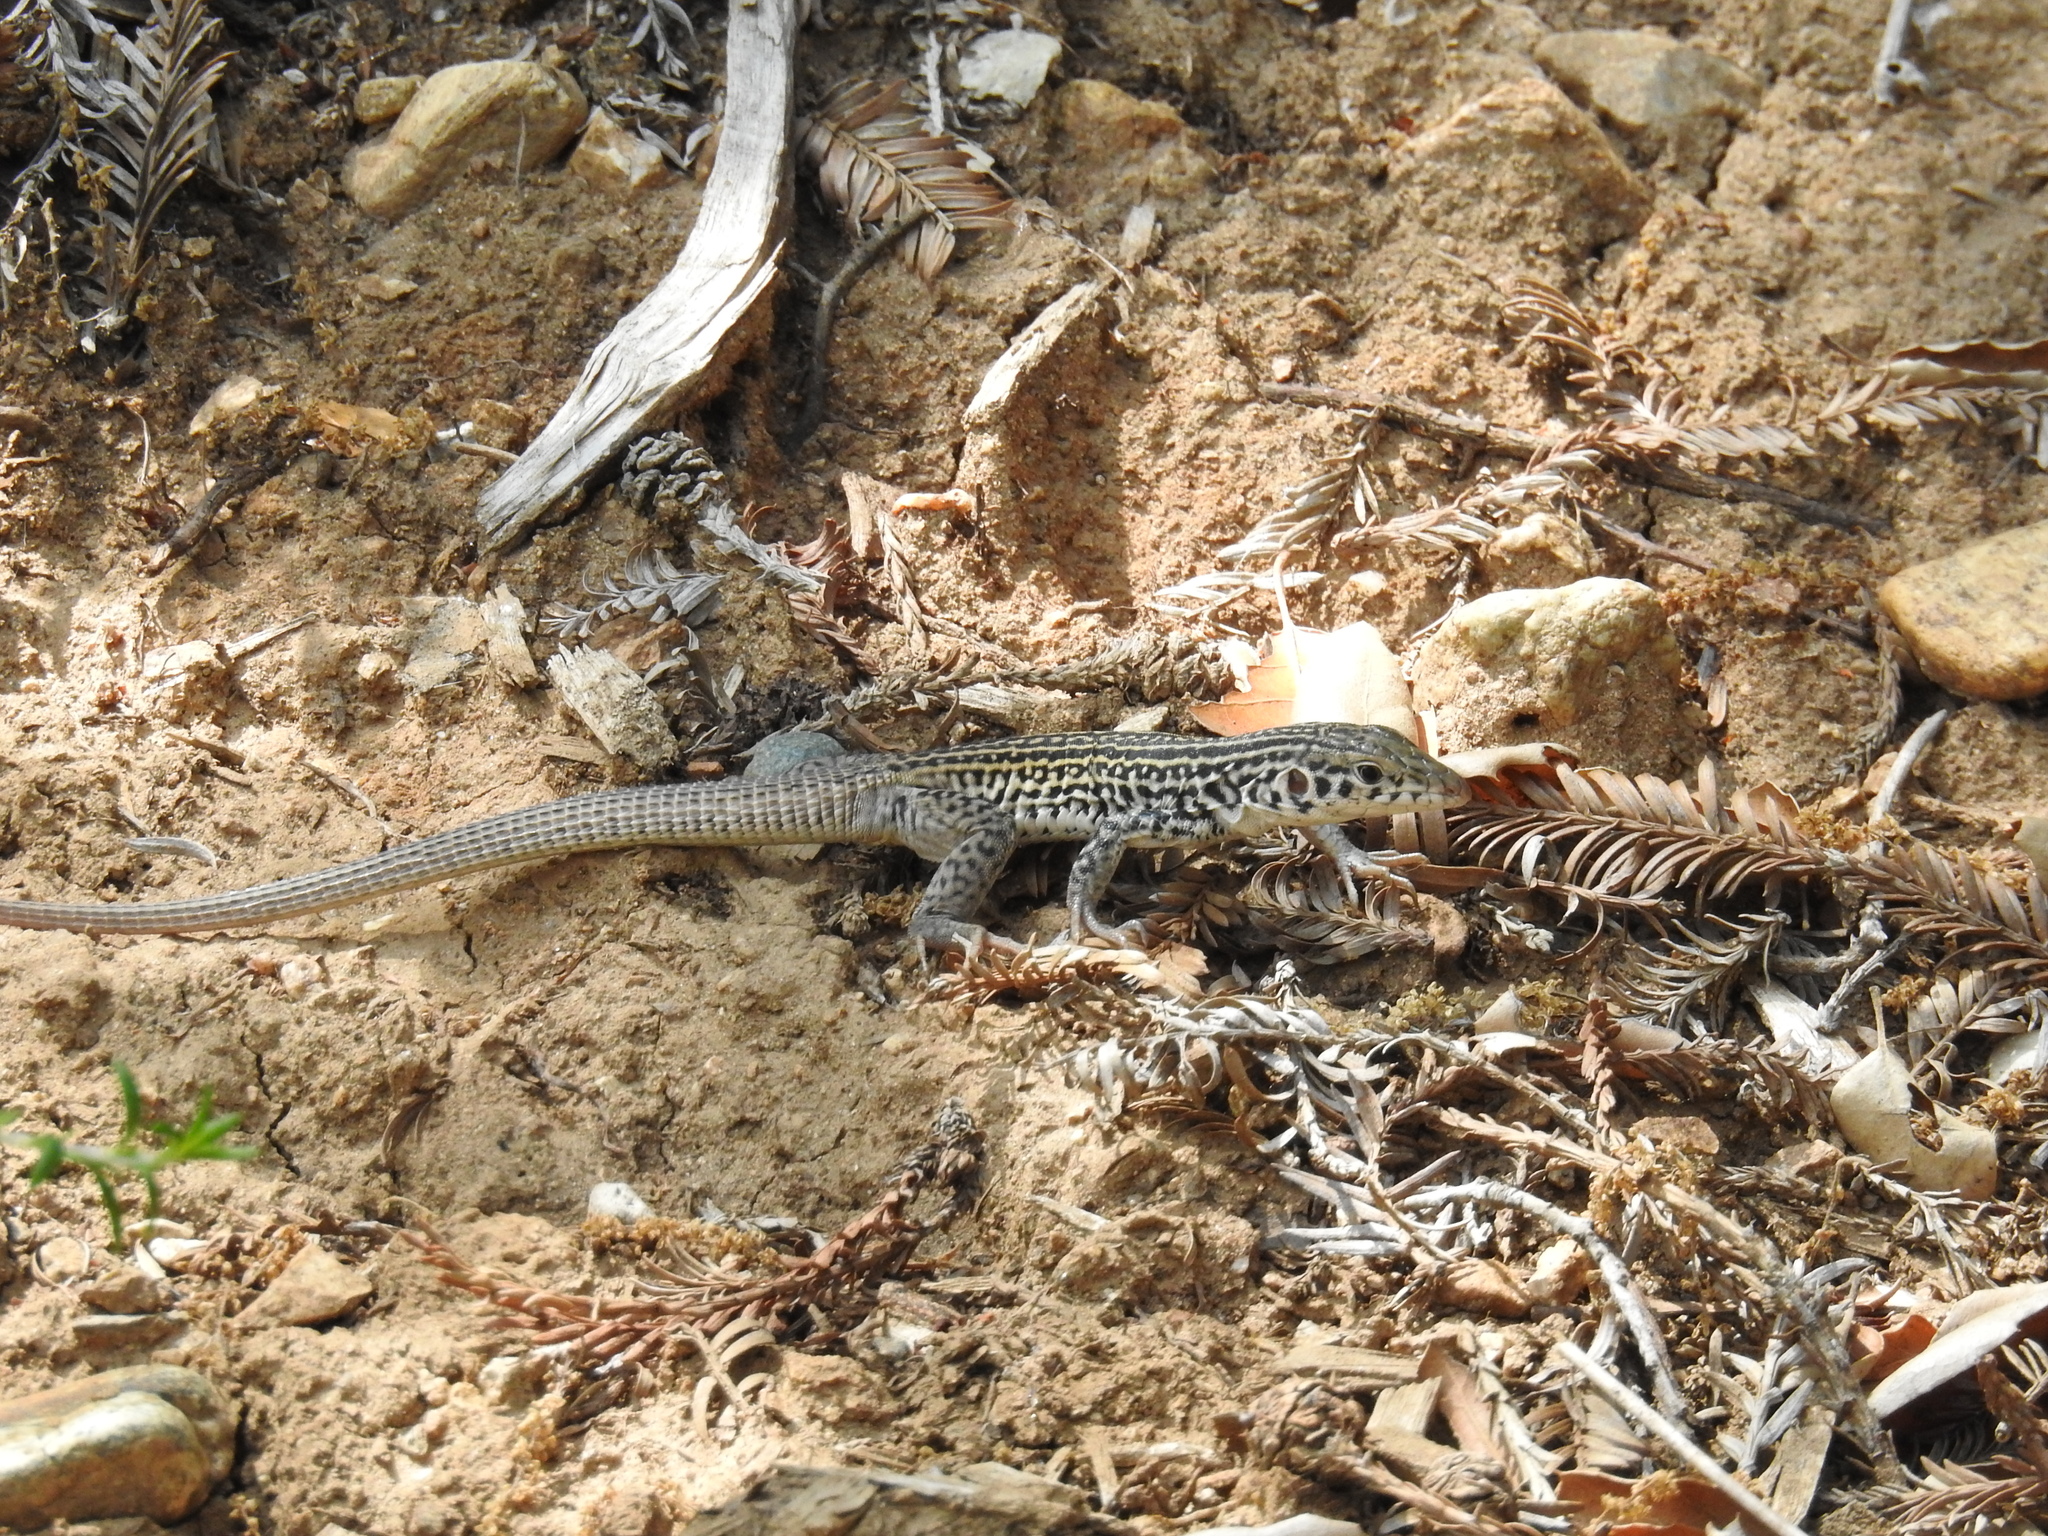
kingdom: Animalia
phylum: Chordata
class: Squamata
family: Teiidae
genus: Aspidoscelis
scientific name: Aspidoscelis tigris
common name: Tiger whiptail
